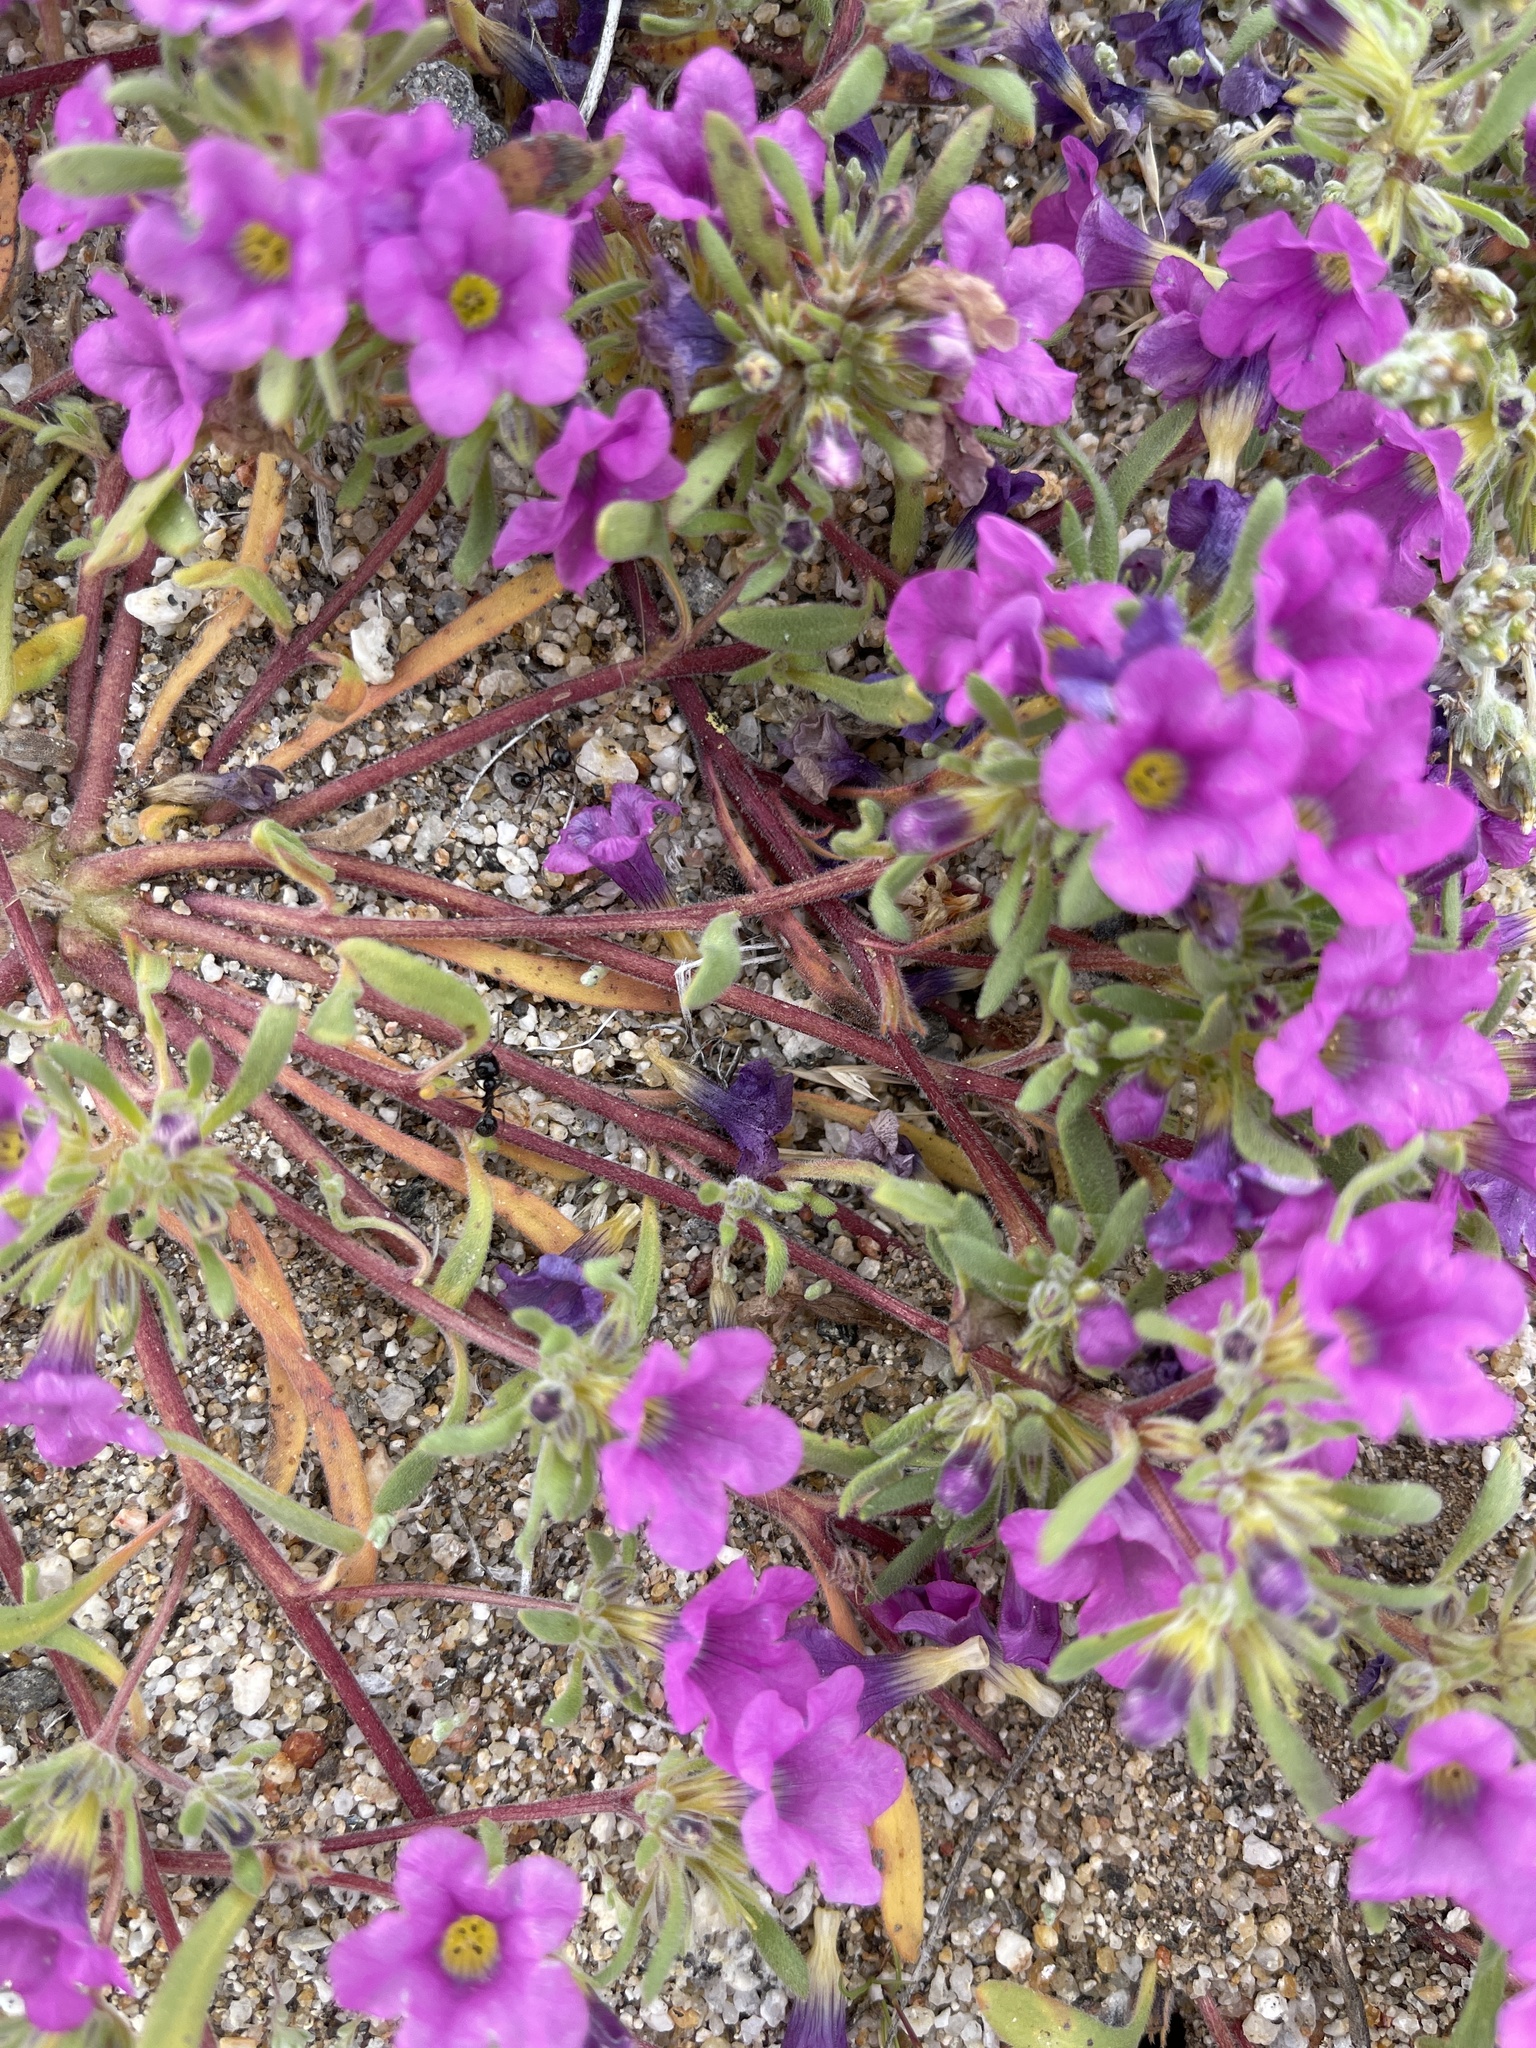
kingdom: Plantae
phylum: Tracheophyta
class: Magnoliopsida
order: Boraginales
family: Namaceae
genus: Nama
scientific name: Nama demissa
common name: Leafy nama
